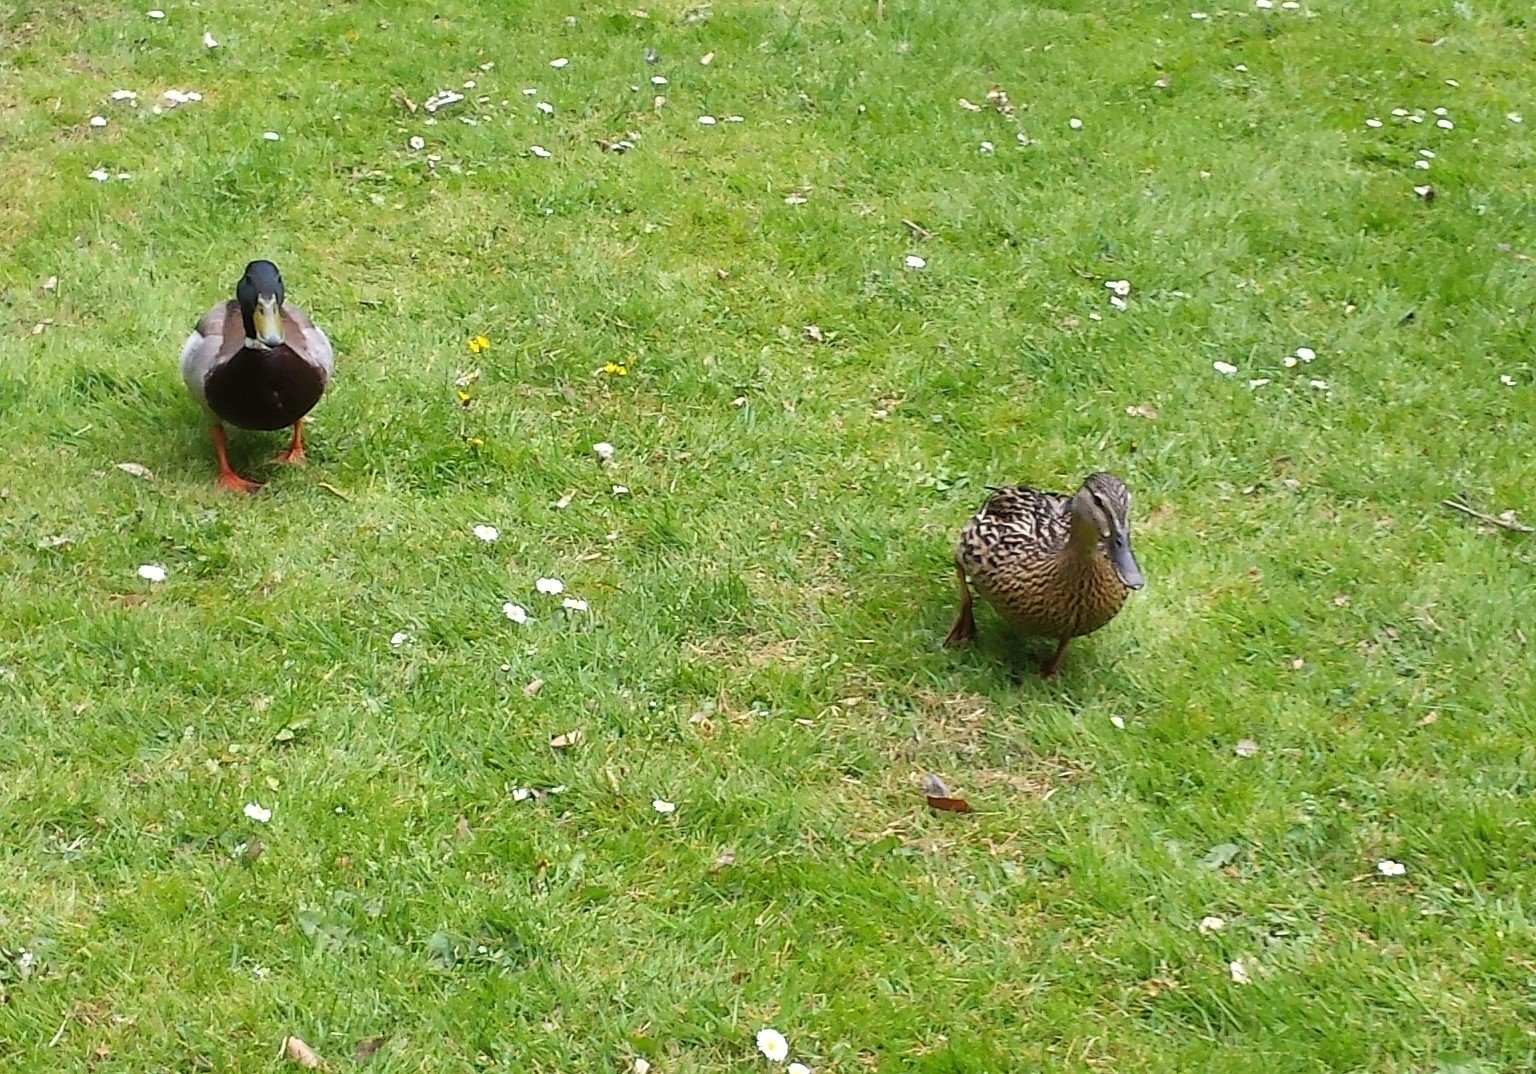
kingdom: Animalia
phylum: Chordata
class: Aves
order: Anseriformes
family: Anatidae
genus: Anas
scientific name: Anas platyrhynchos
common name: Mallard
